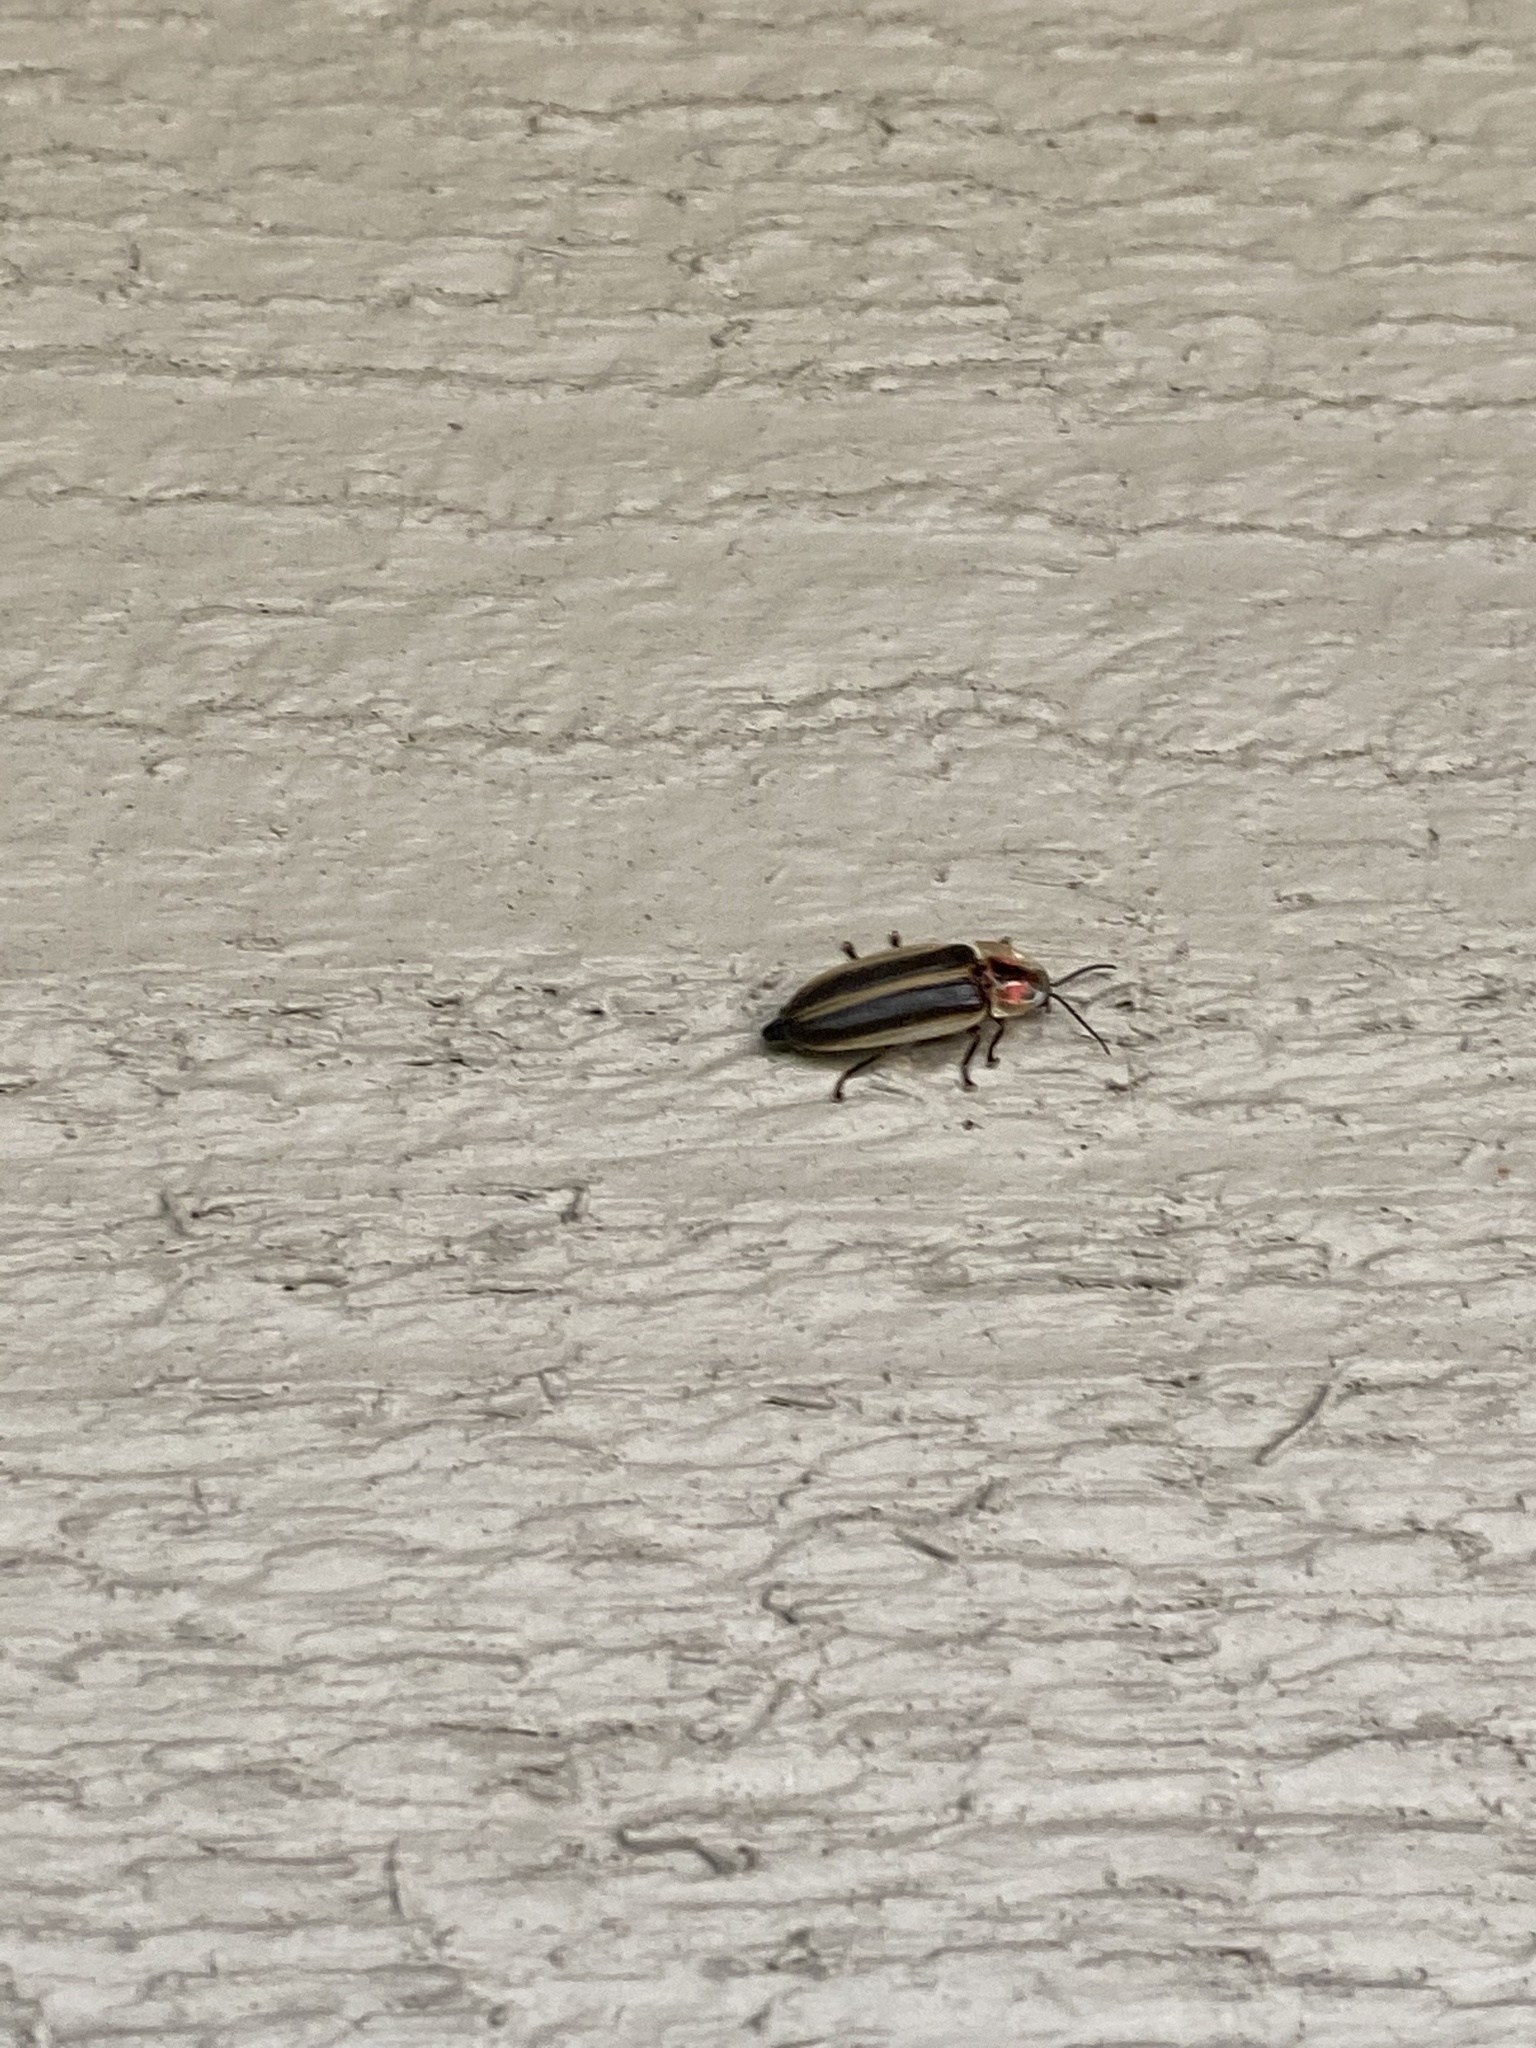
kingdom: Animalia
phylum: Arthropoda
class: Insecta
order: Coleoptera
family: Lampyridae
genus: Micronaspis
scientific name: Micronaspis floridana
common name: Florida intertidal firefly
